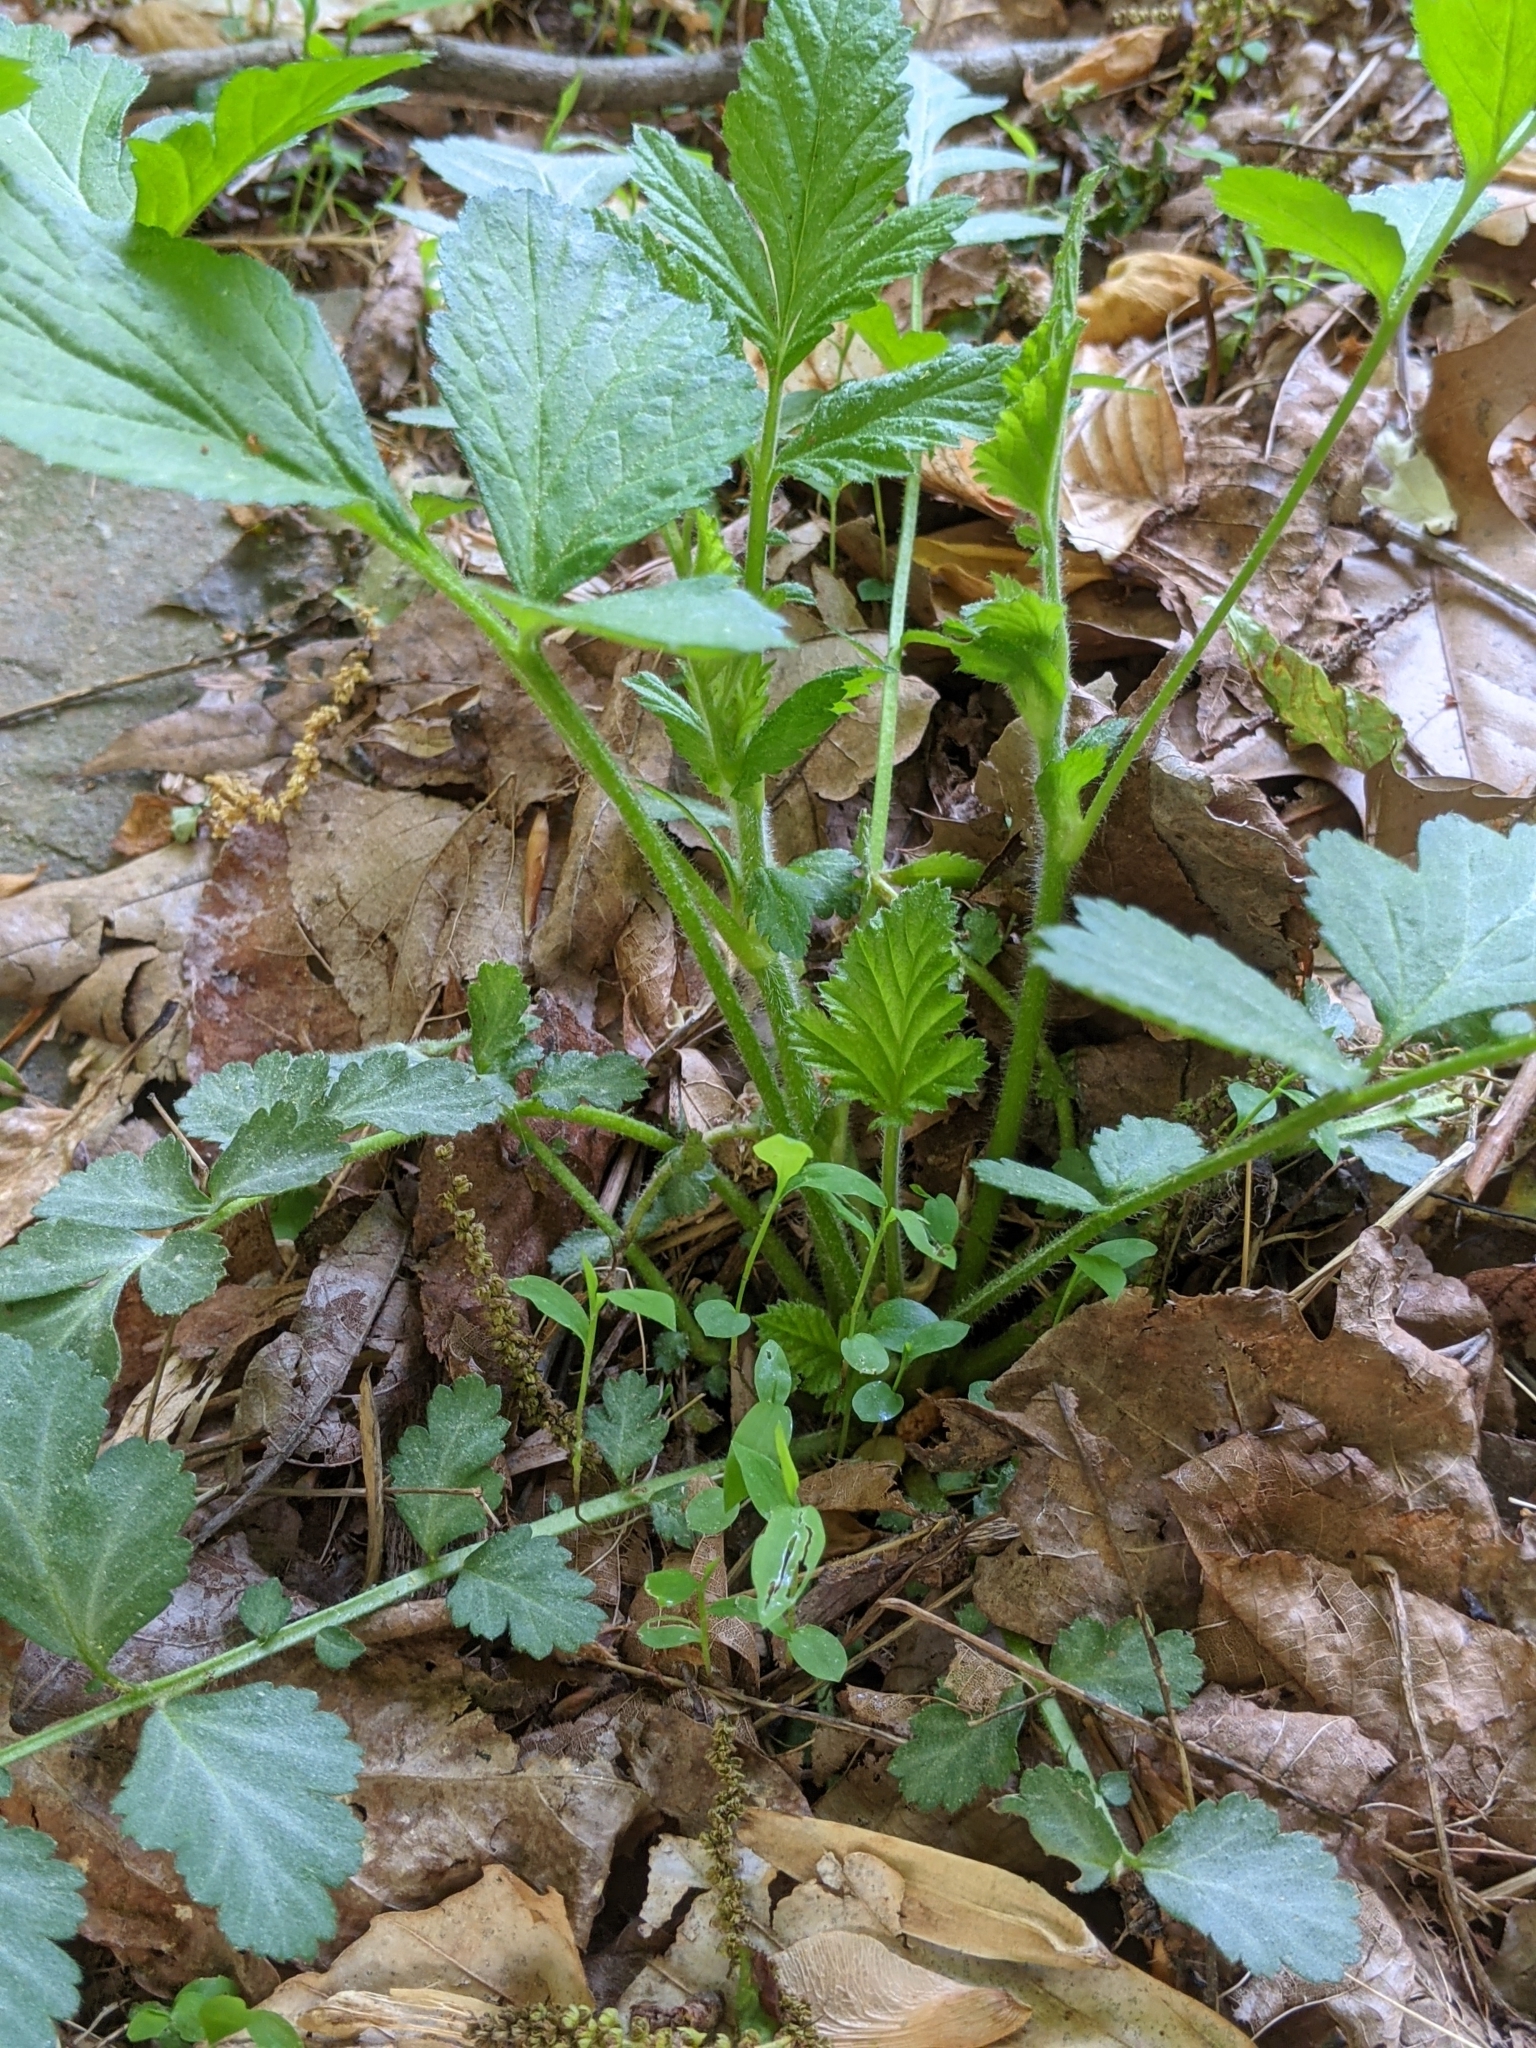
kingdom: Plantae
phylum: Tracheophyta
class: Magnoliopsida
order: Rosales
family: Rosaceae
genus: Geum
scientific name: Geum canadense
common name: White avens
